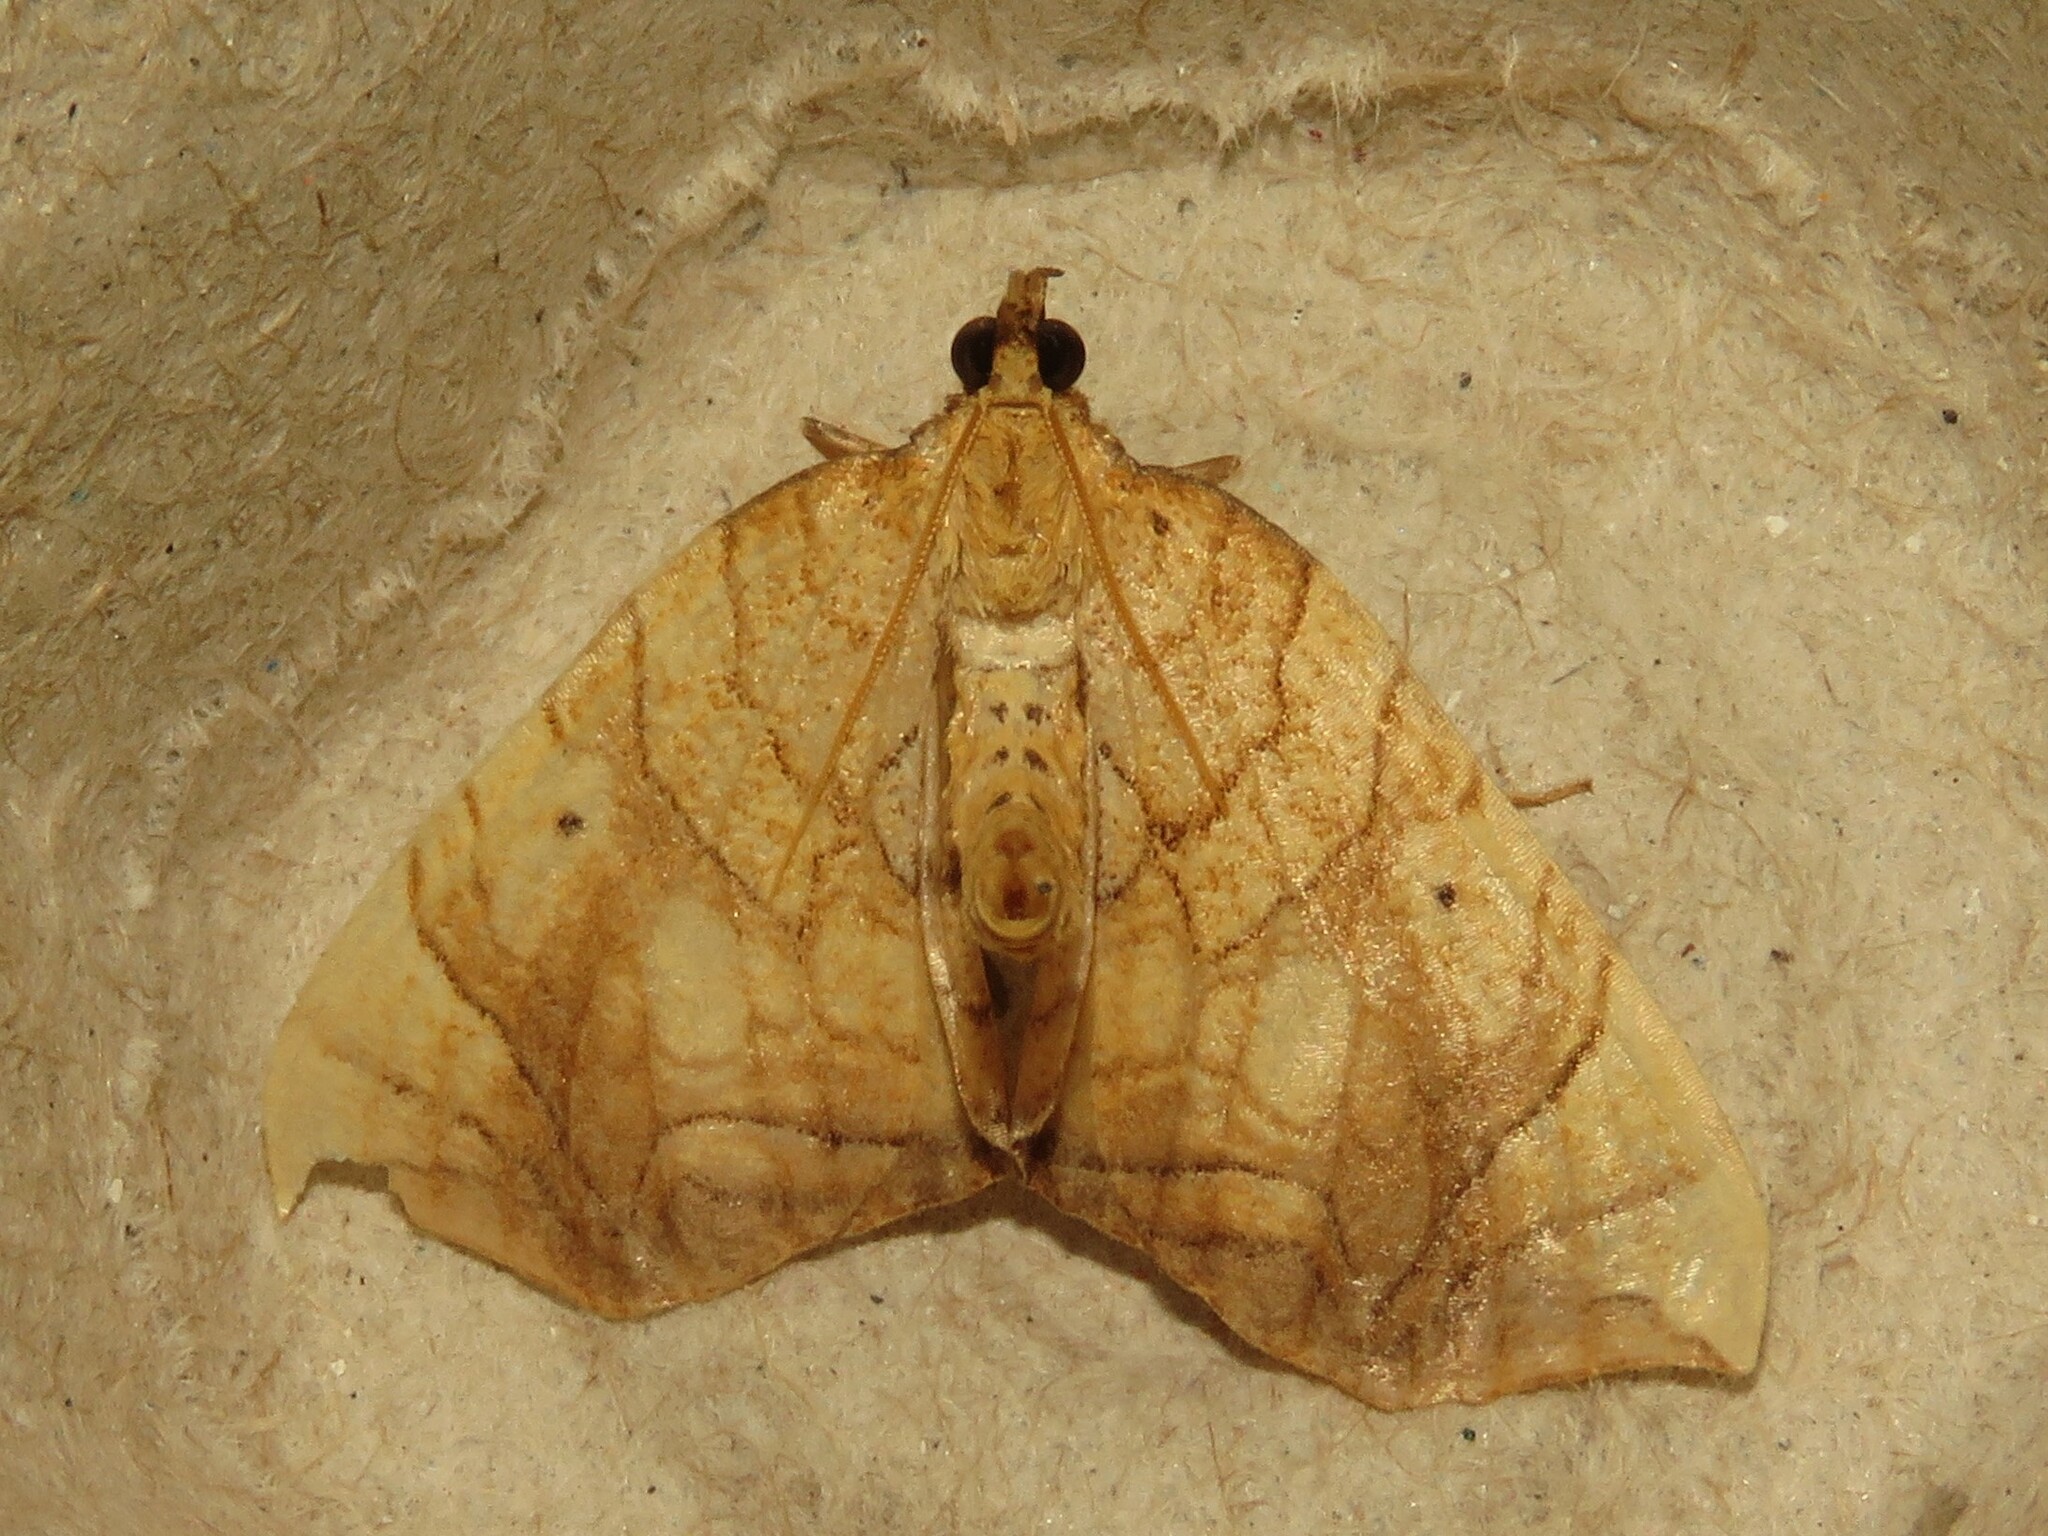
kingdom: Animalia
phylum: Arthropoda
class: Insecta
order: Lepidoptera
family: Geometridae
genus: Eulithis
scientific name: Eulithis gracilineata
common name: Greater grapevine looper moth
